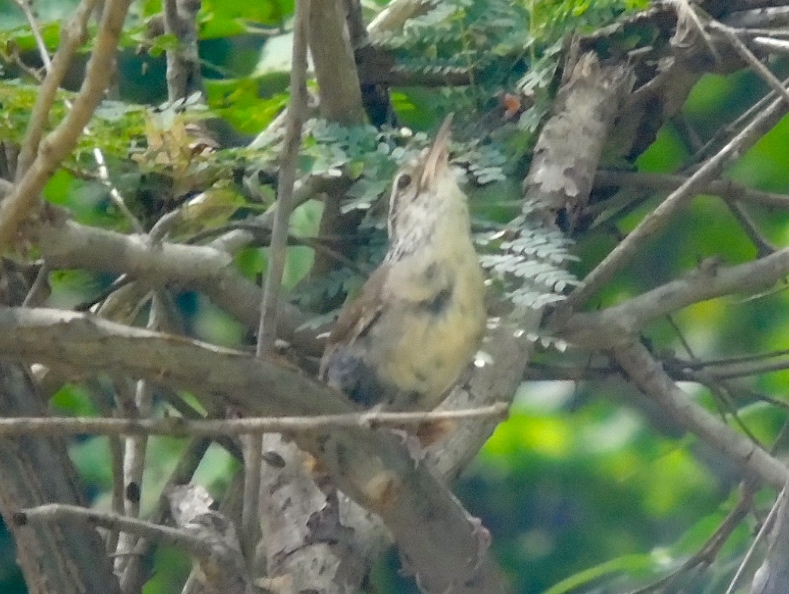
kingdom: Animalia
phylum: Chordata
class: Aves
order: Passeriformes
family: Troglodytidae
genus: Thryophilus
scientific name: Thryophilus sinaloa
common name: Sinaloa wren
